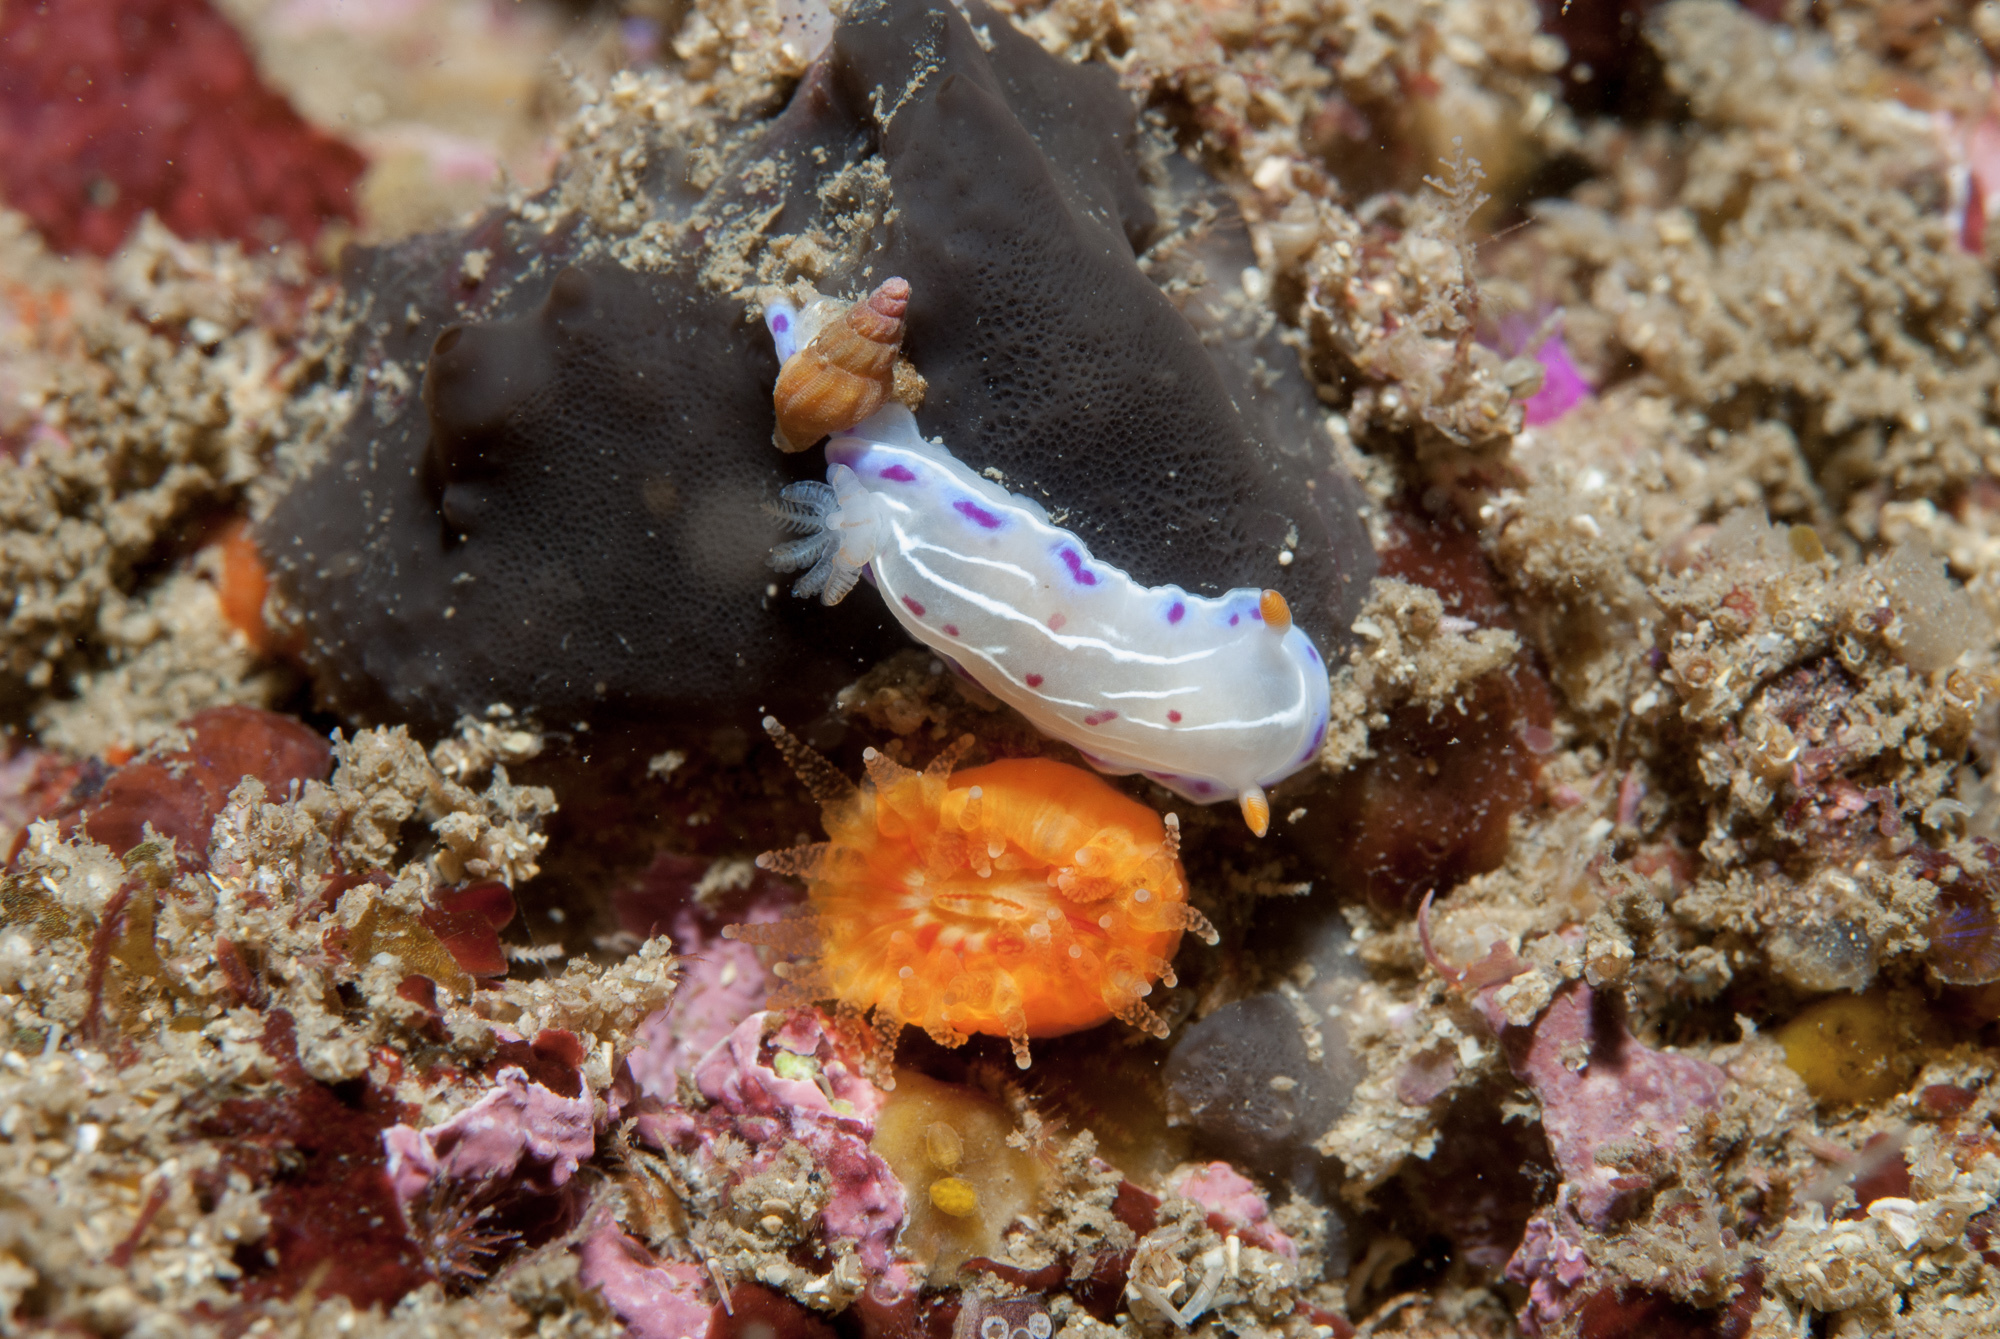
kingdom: Animalia
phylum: Mollusca
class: Gastropoda
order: Nudibranchia
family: Chromodorididae
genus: Hypselodoris
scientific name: Hypselodoris capensis
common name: Cape dorid
